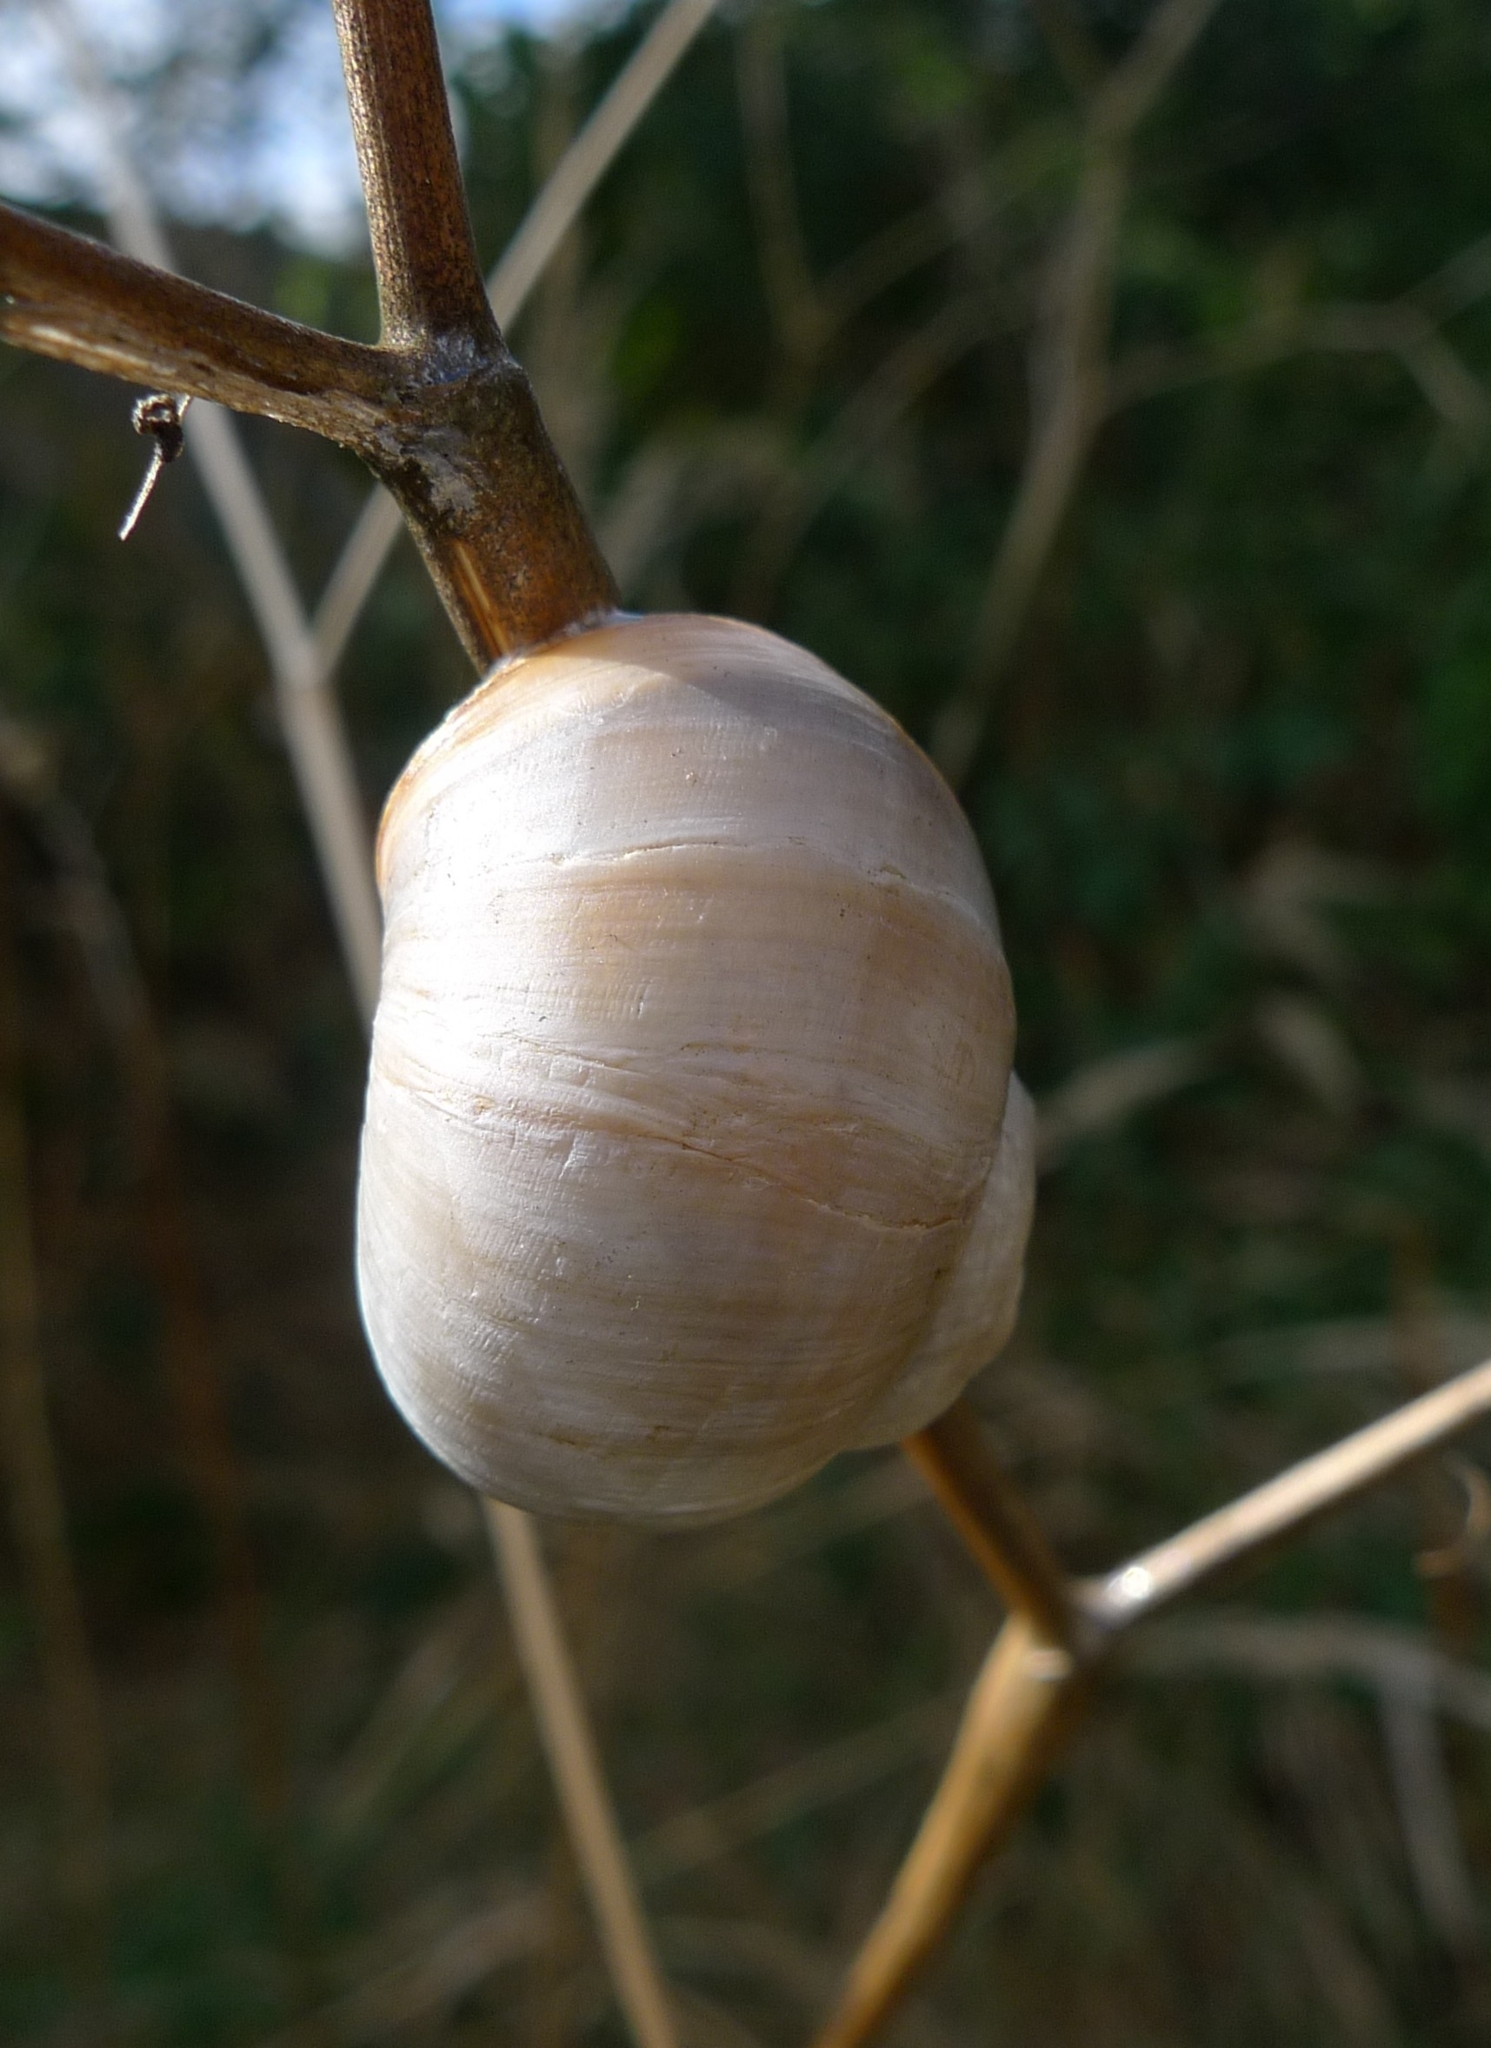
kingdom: Animalia
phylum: Mollusca
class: Gastropoda
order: Stylommatophora
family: Helicidae
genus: Helix
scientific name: Helix lutescens
